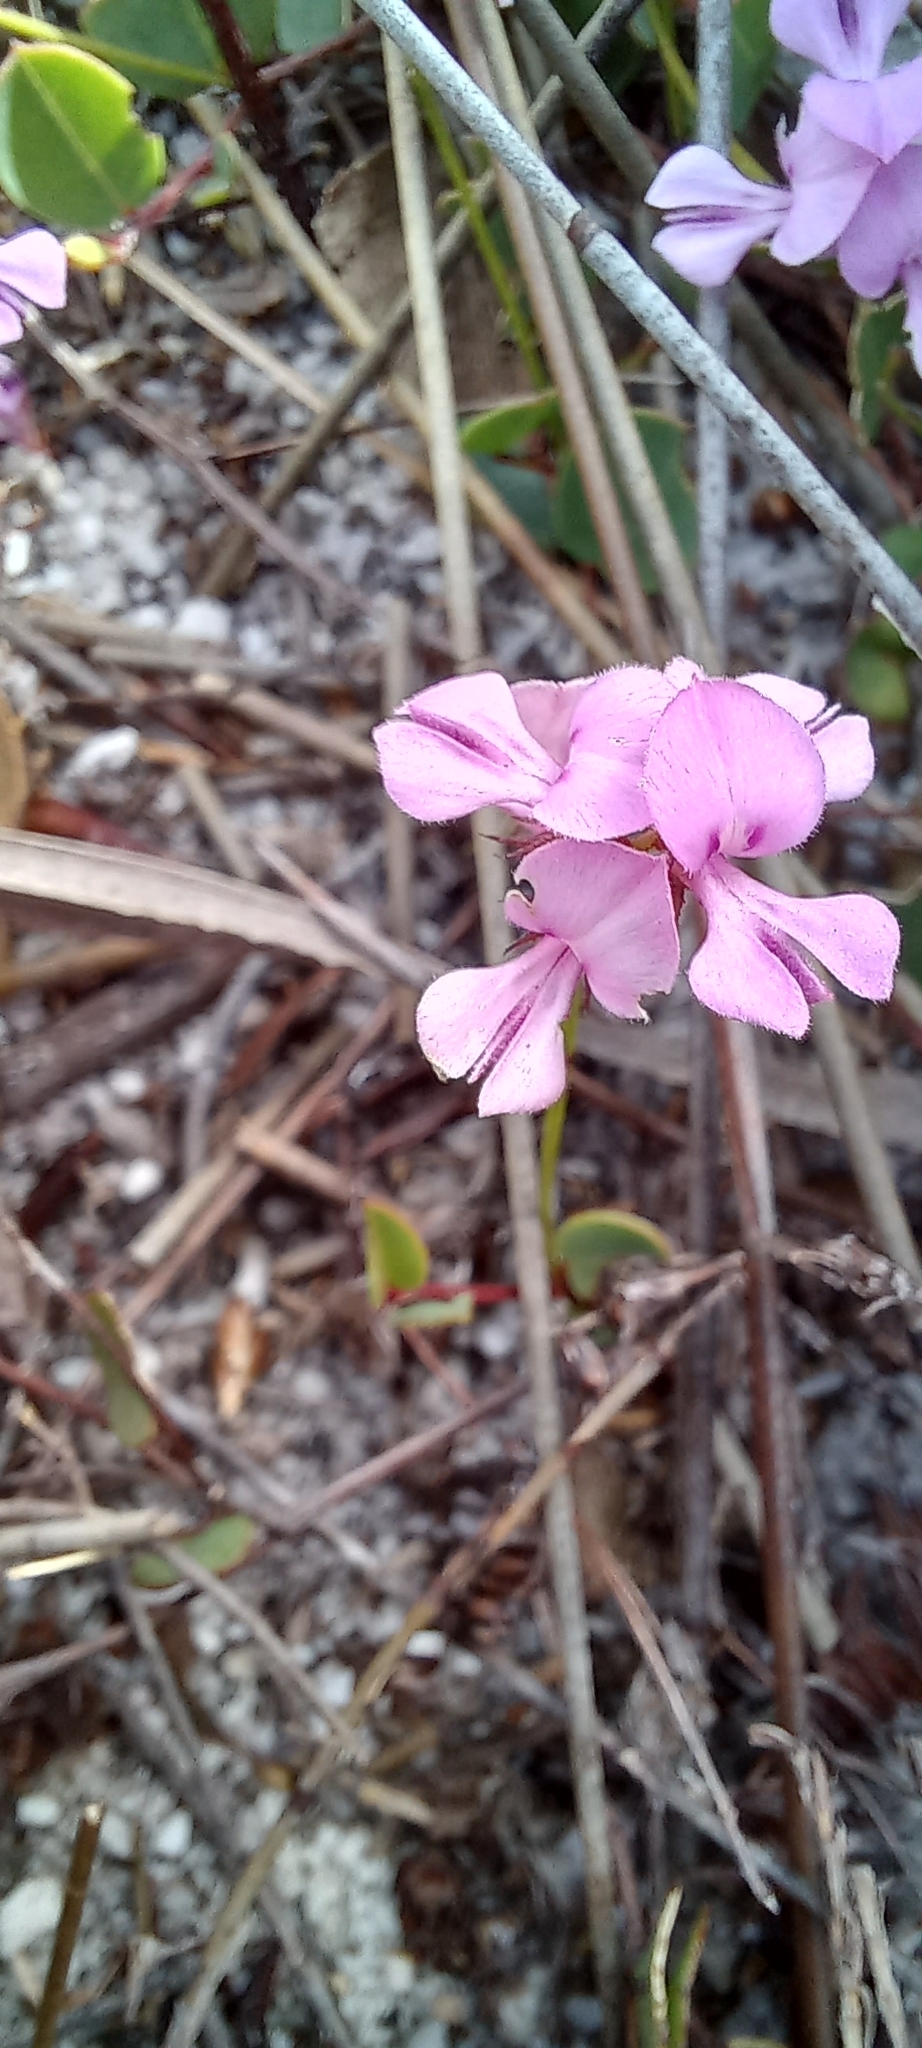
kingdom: Plantae
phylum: Tracheophyta
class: Magnoliopsida
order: Fabales
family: Fabaceae
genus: Indigofera
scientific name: Indigofera ovata
